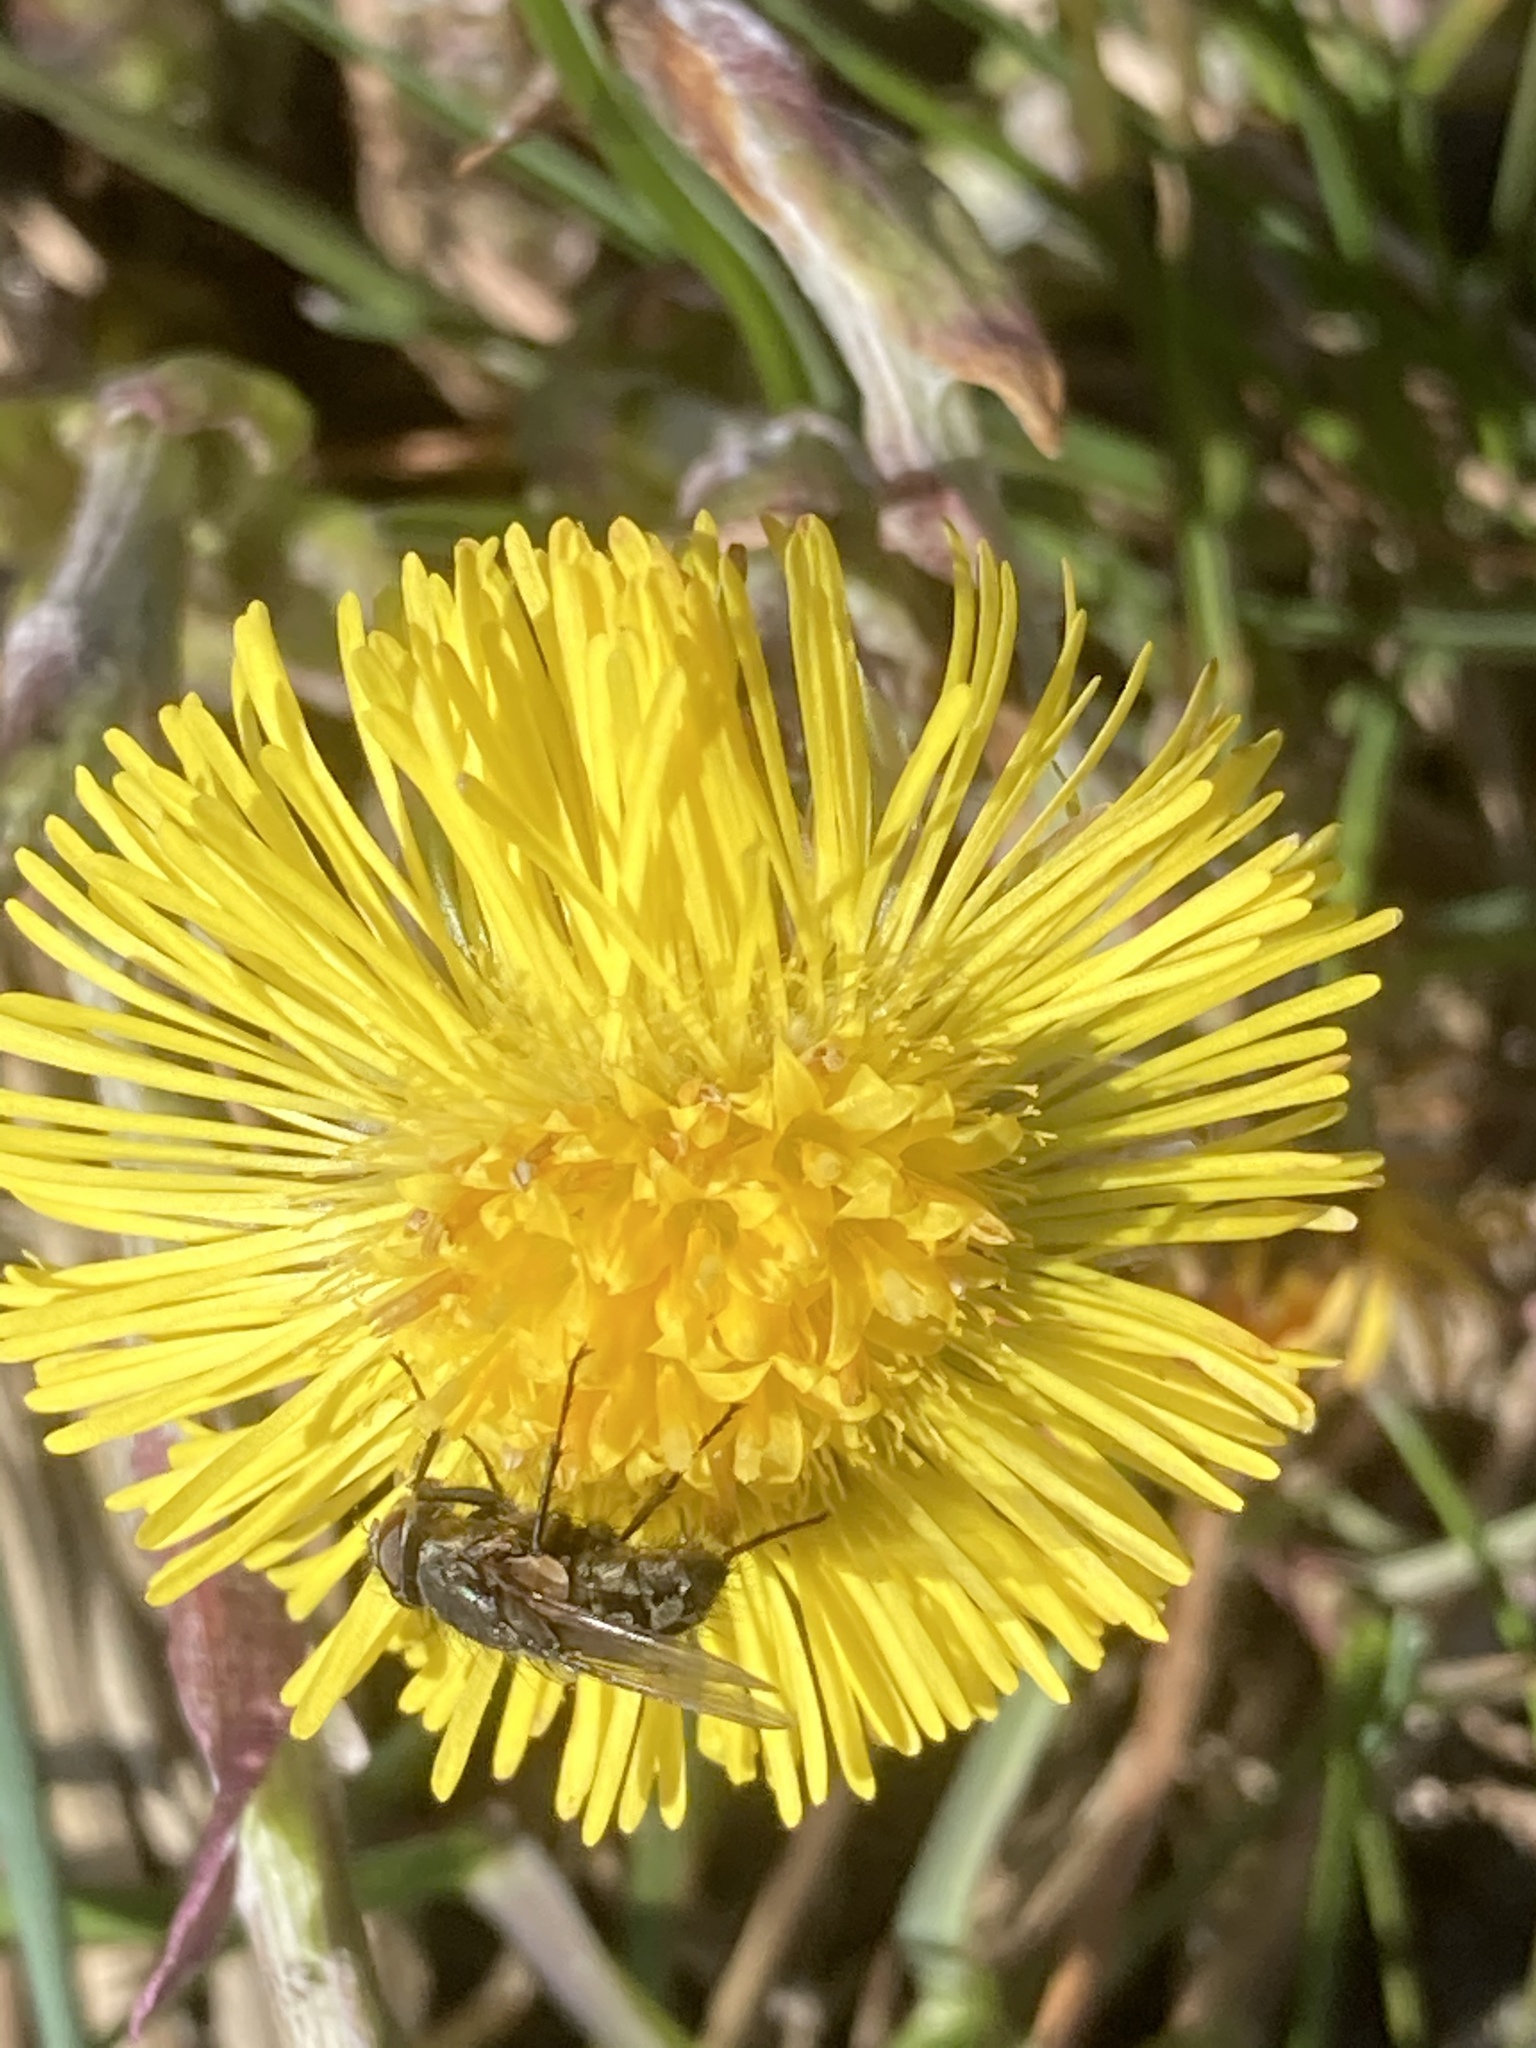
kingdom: Plantae
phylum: Tracheophyta
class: Magnoliopsida
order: Asterales
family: Asteraceae
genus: Tussilago
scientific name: Tussilago farfara
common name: Coltsfoot
